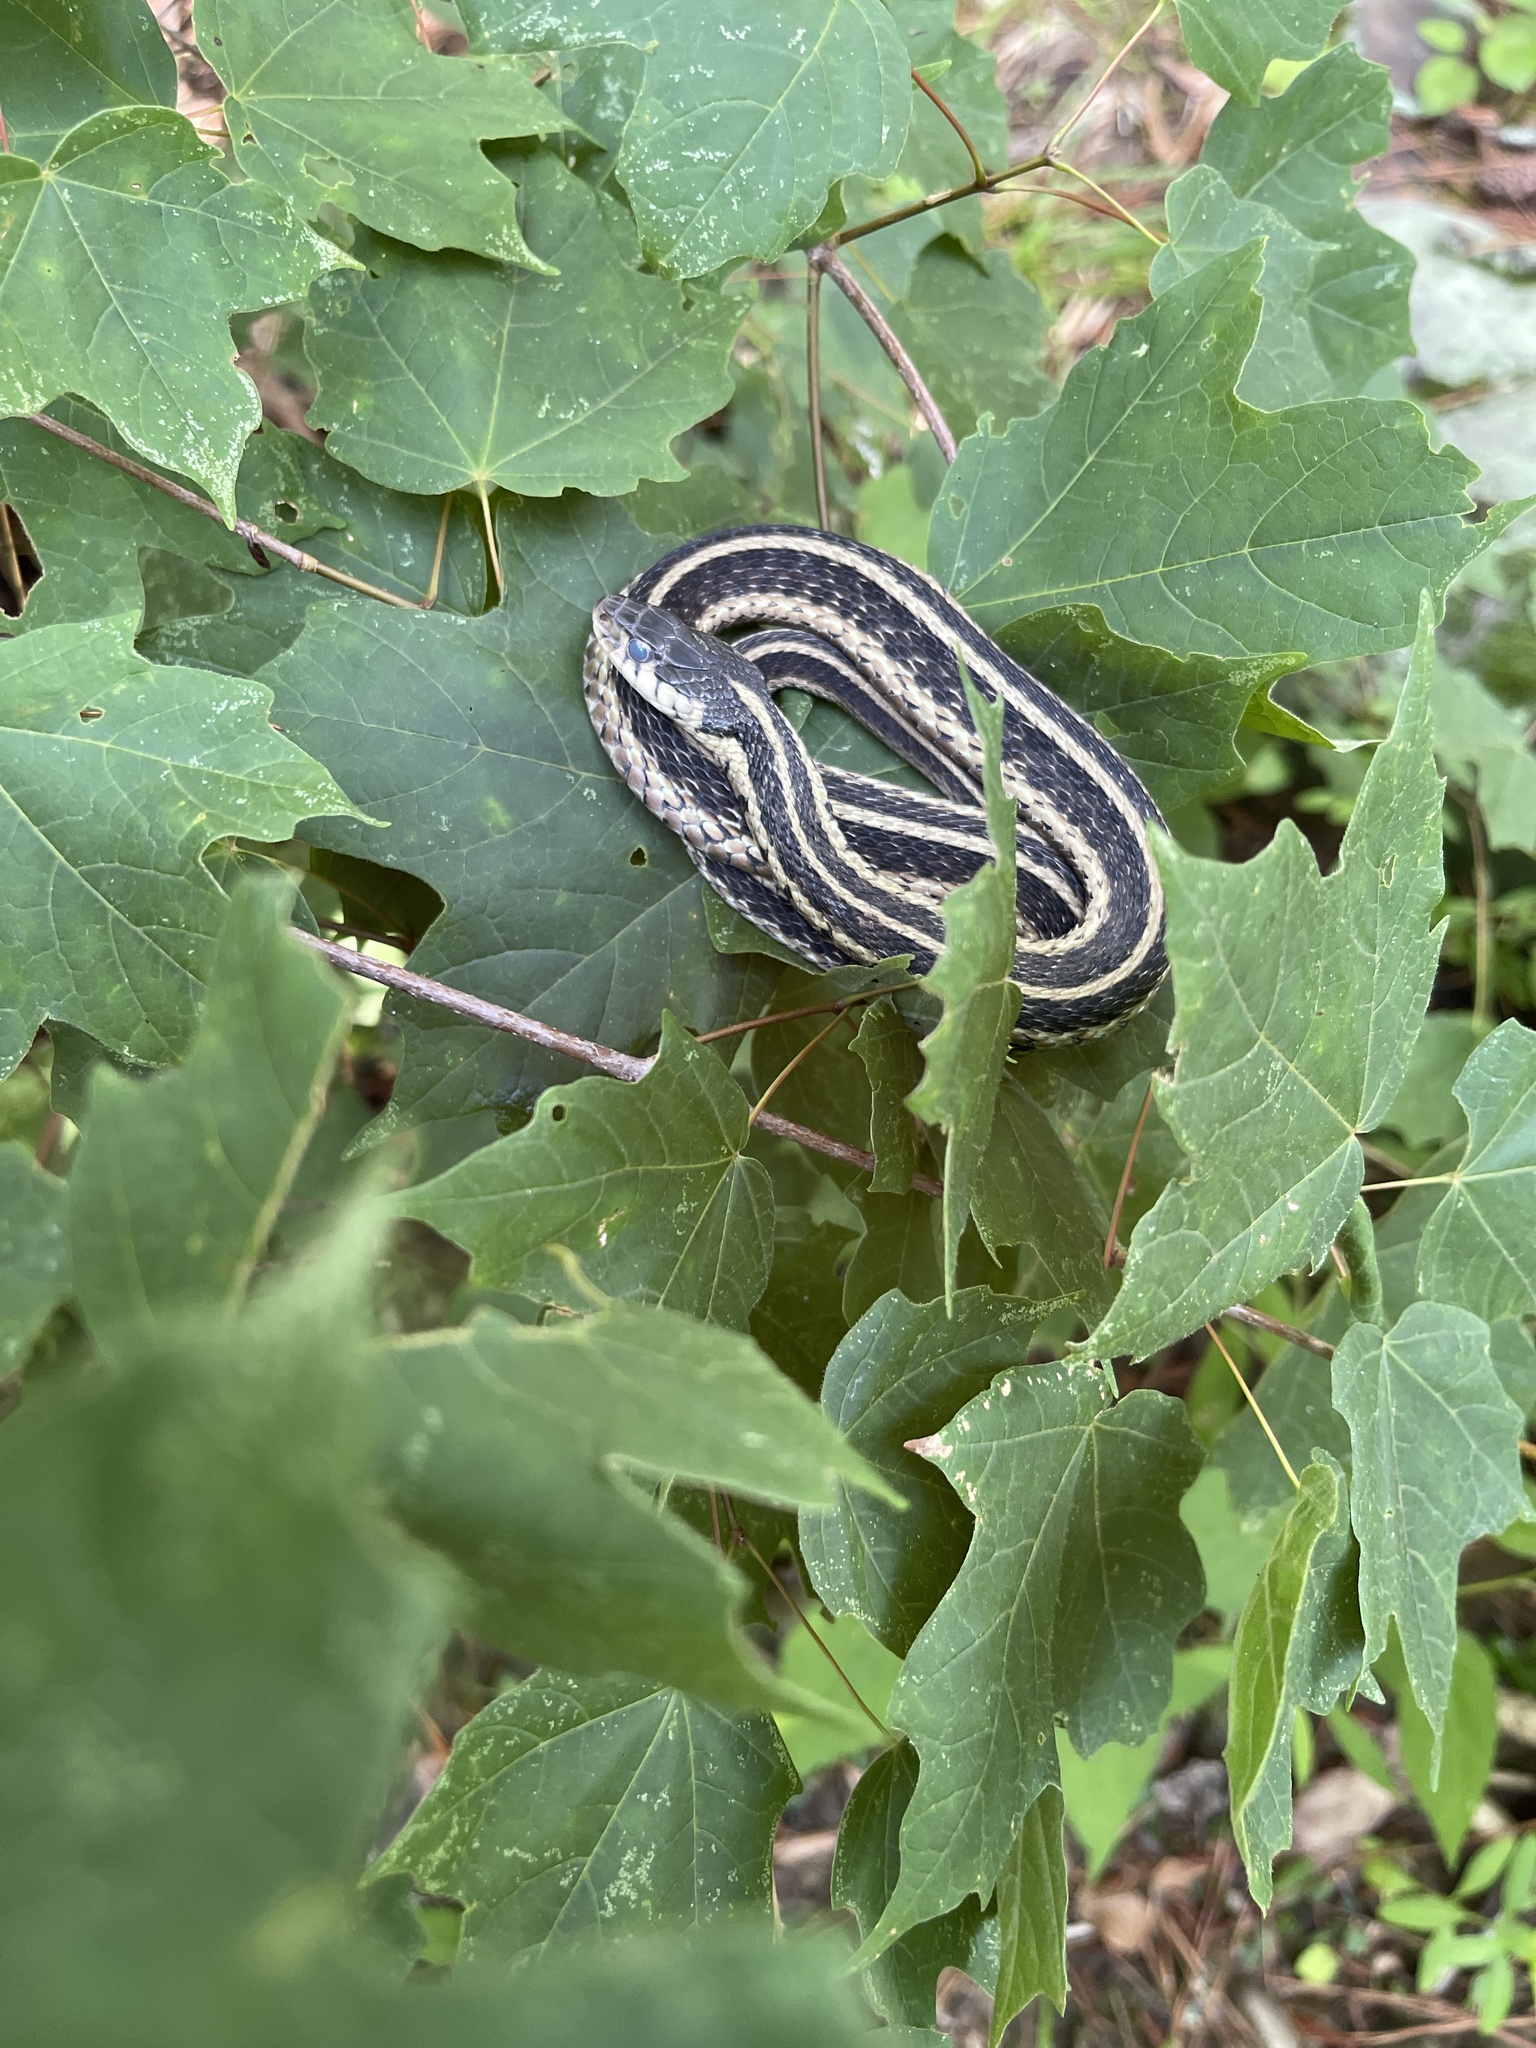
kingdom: Animalia
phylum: Chordata
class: Squamata
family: Colubridae
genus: Thamnophis
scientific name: Thamnophis sirtalis
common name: Common garter snake
